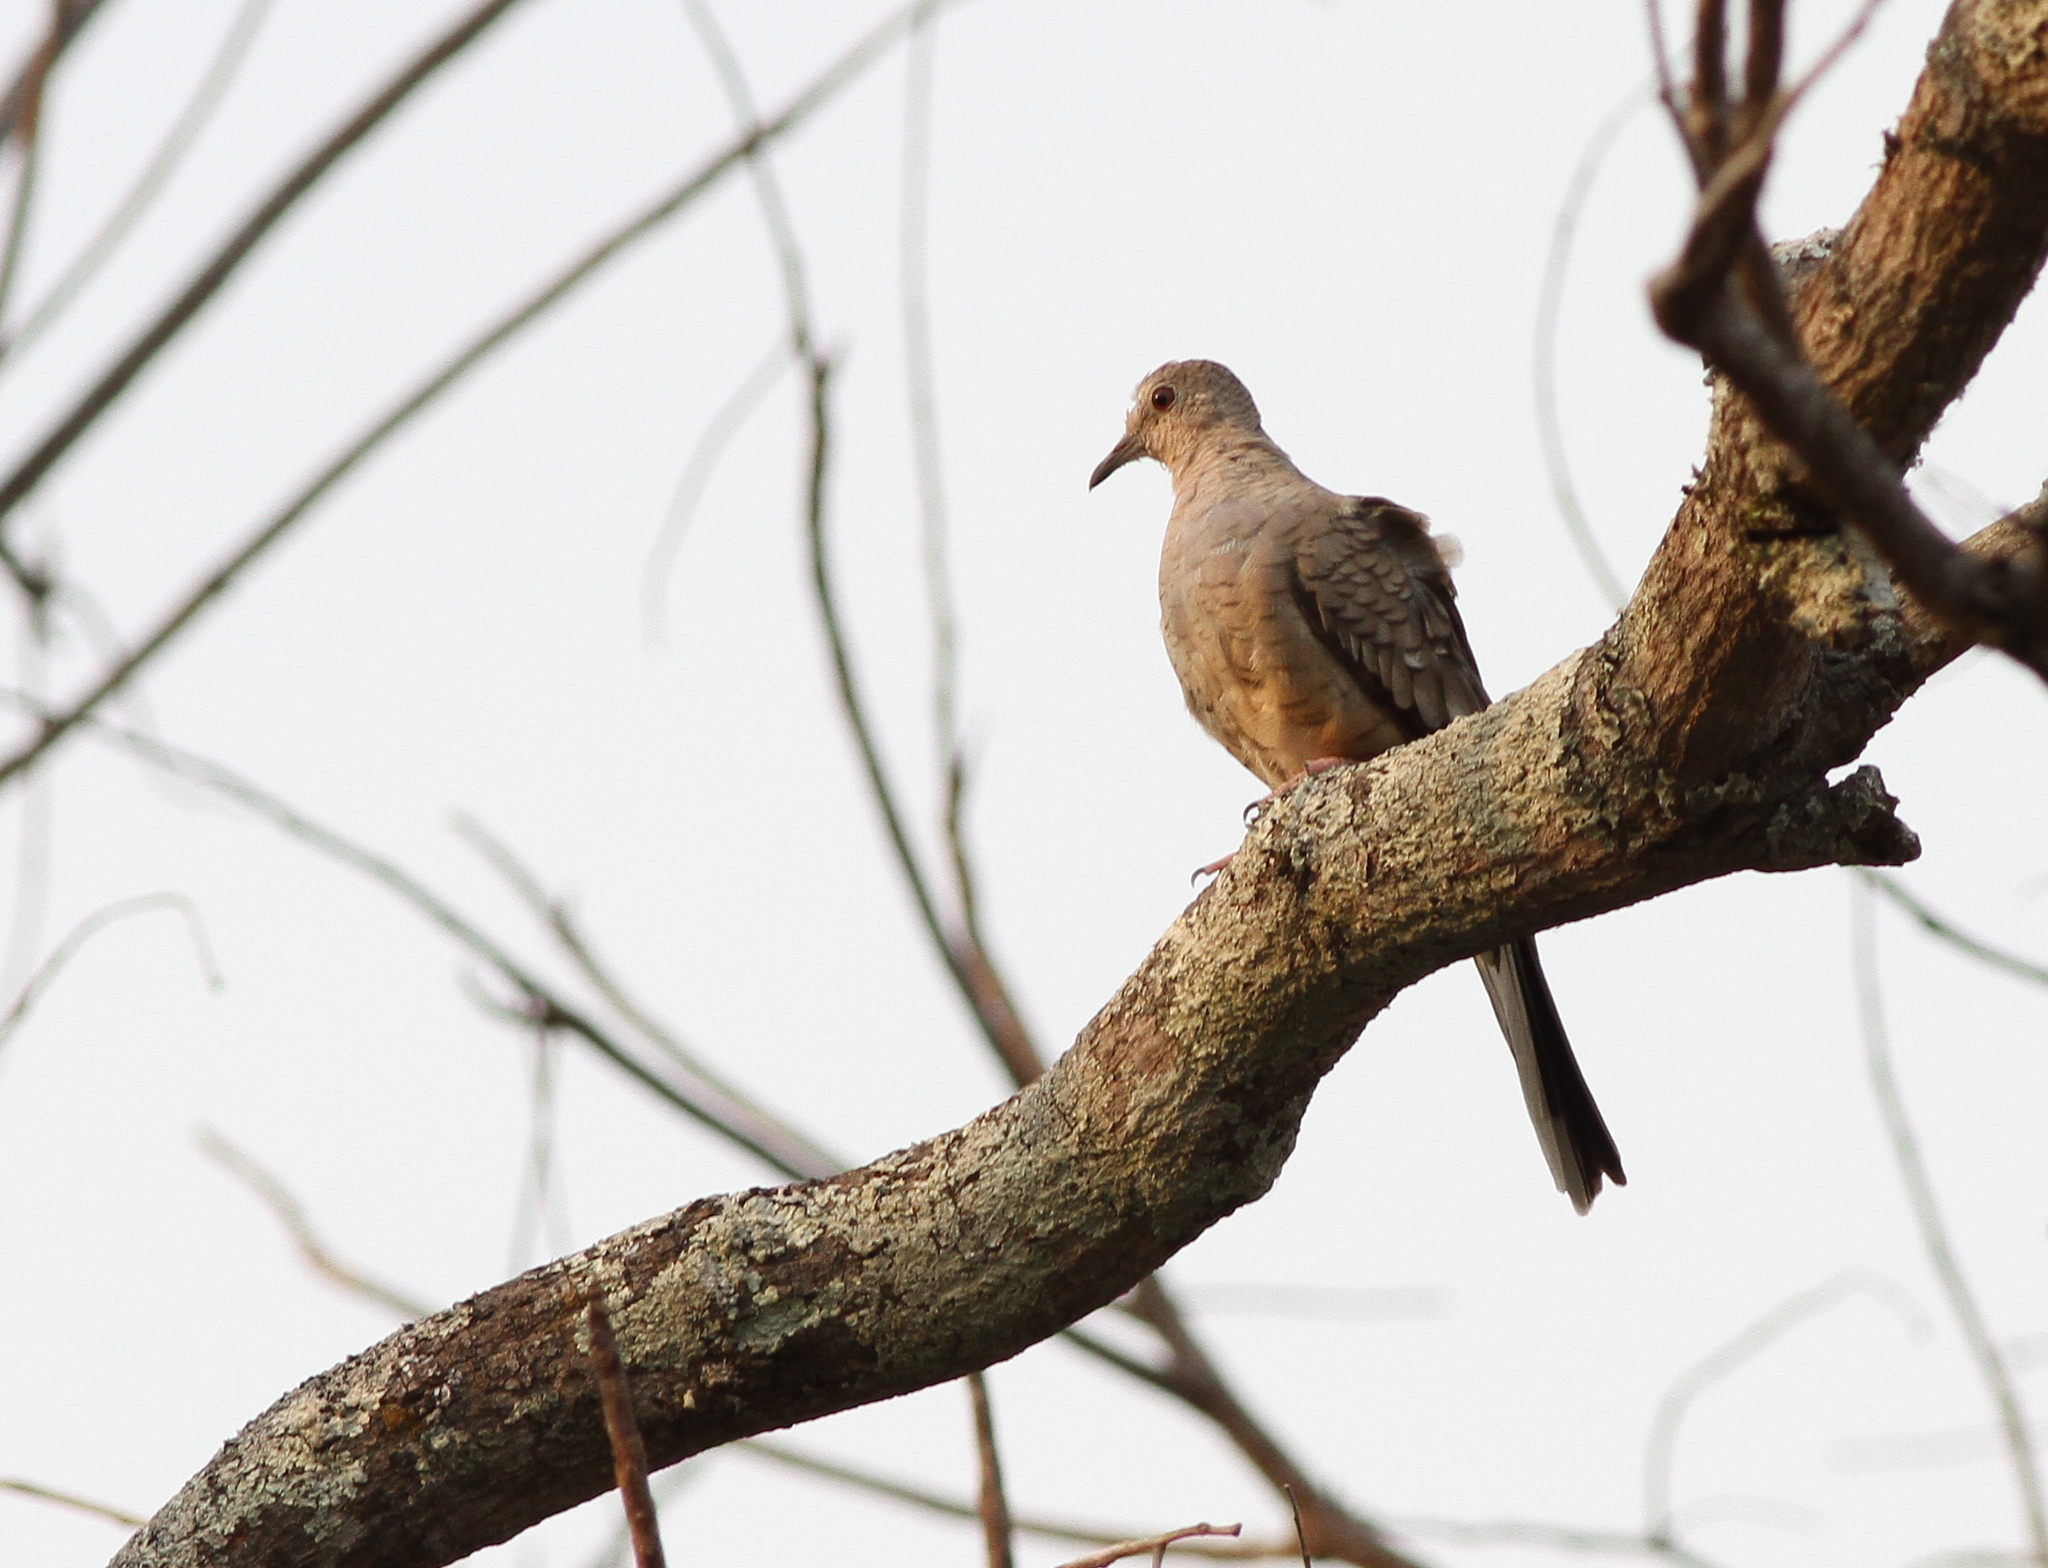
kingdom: Animalia
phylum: Chordata
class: Aves
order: Columbiformes
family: Columbidae
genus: Columbina
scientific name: Columbina inca
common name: Inca dove
